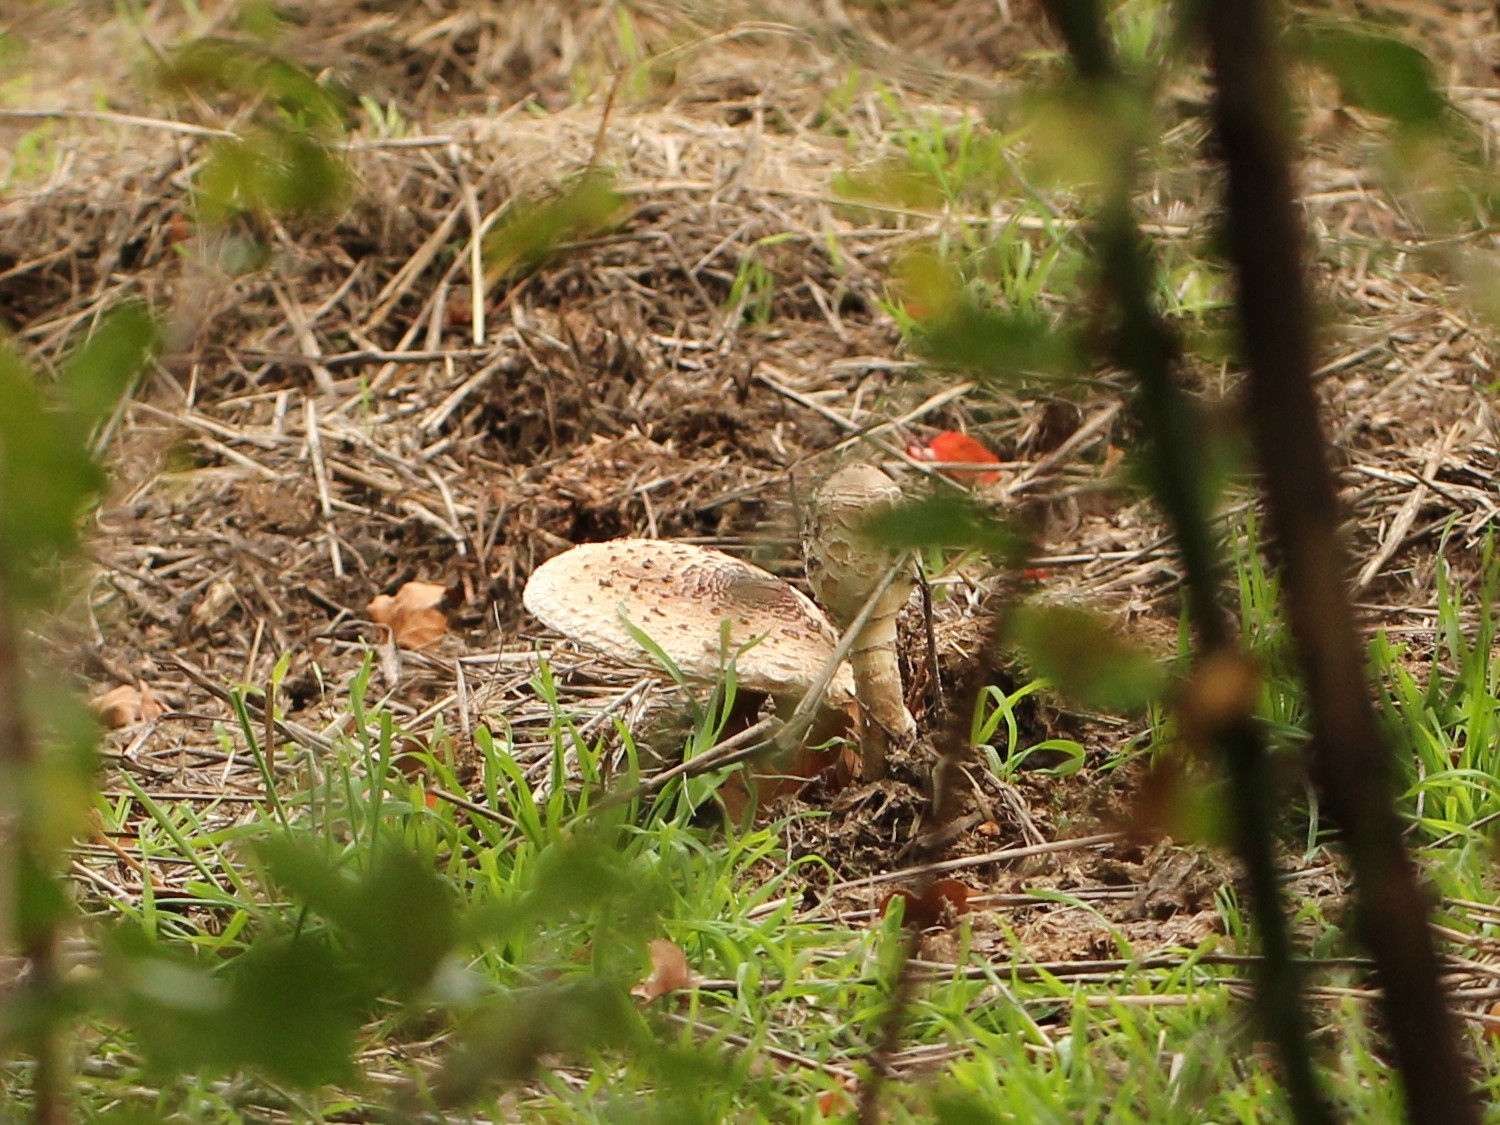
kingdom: Fungi
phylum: Basidiomycota
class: Agaricomycetes
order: Agaricales
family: Agaricaceae
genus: Macrolepiota
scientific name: Macrolepiota procera
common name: Parasol
